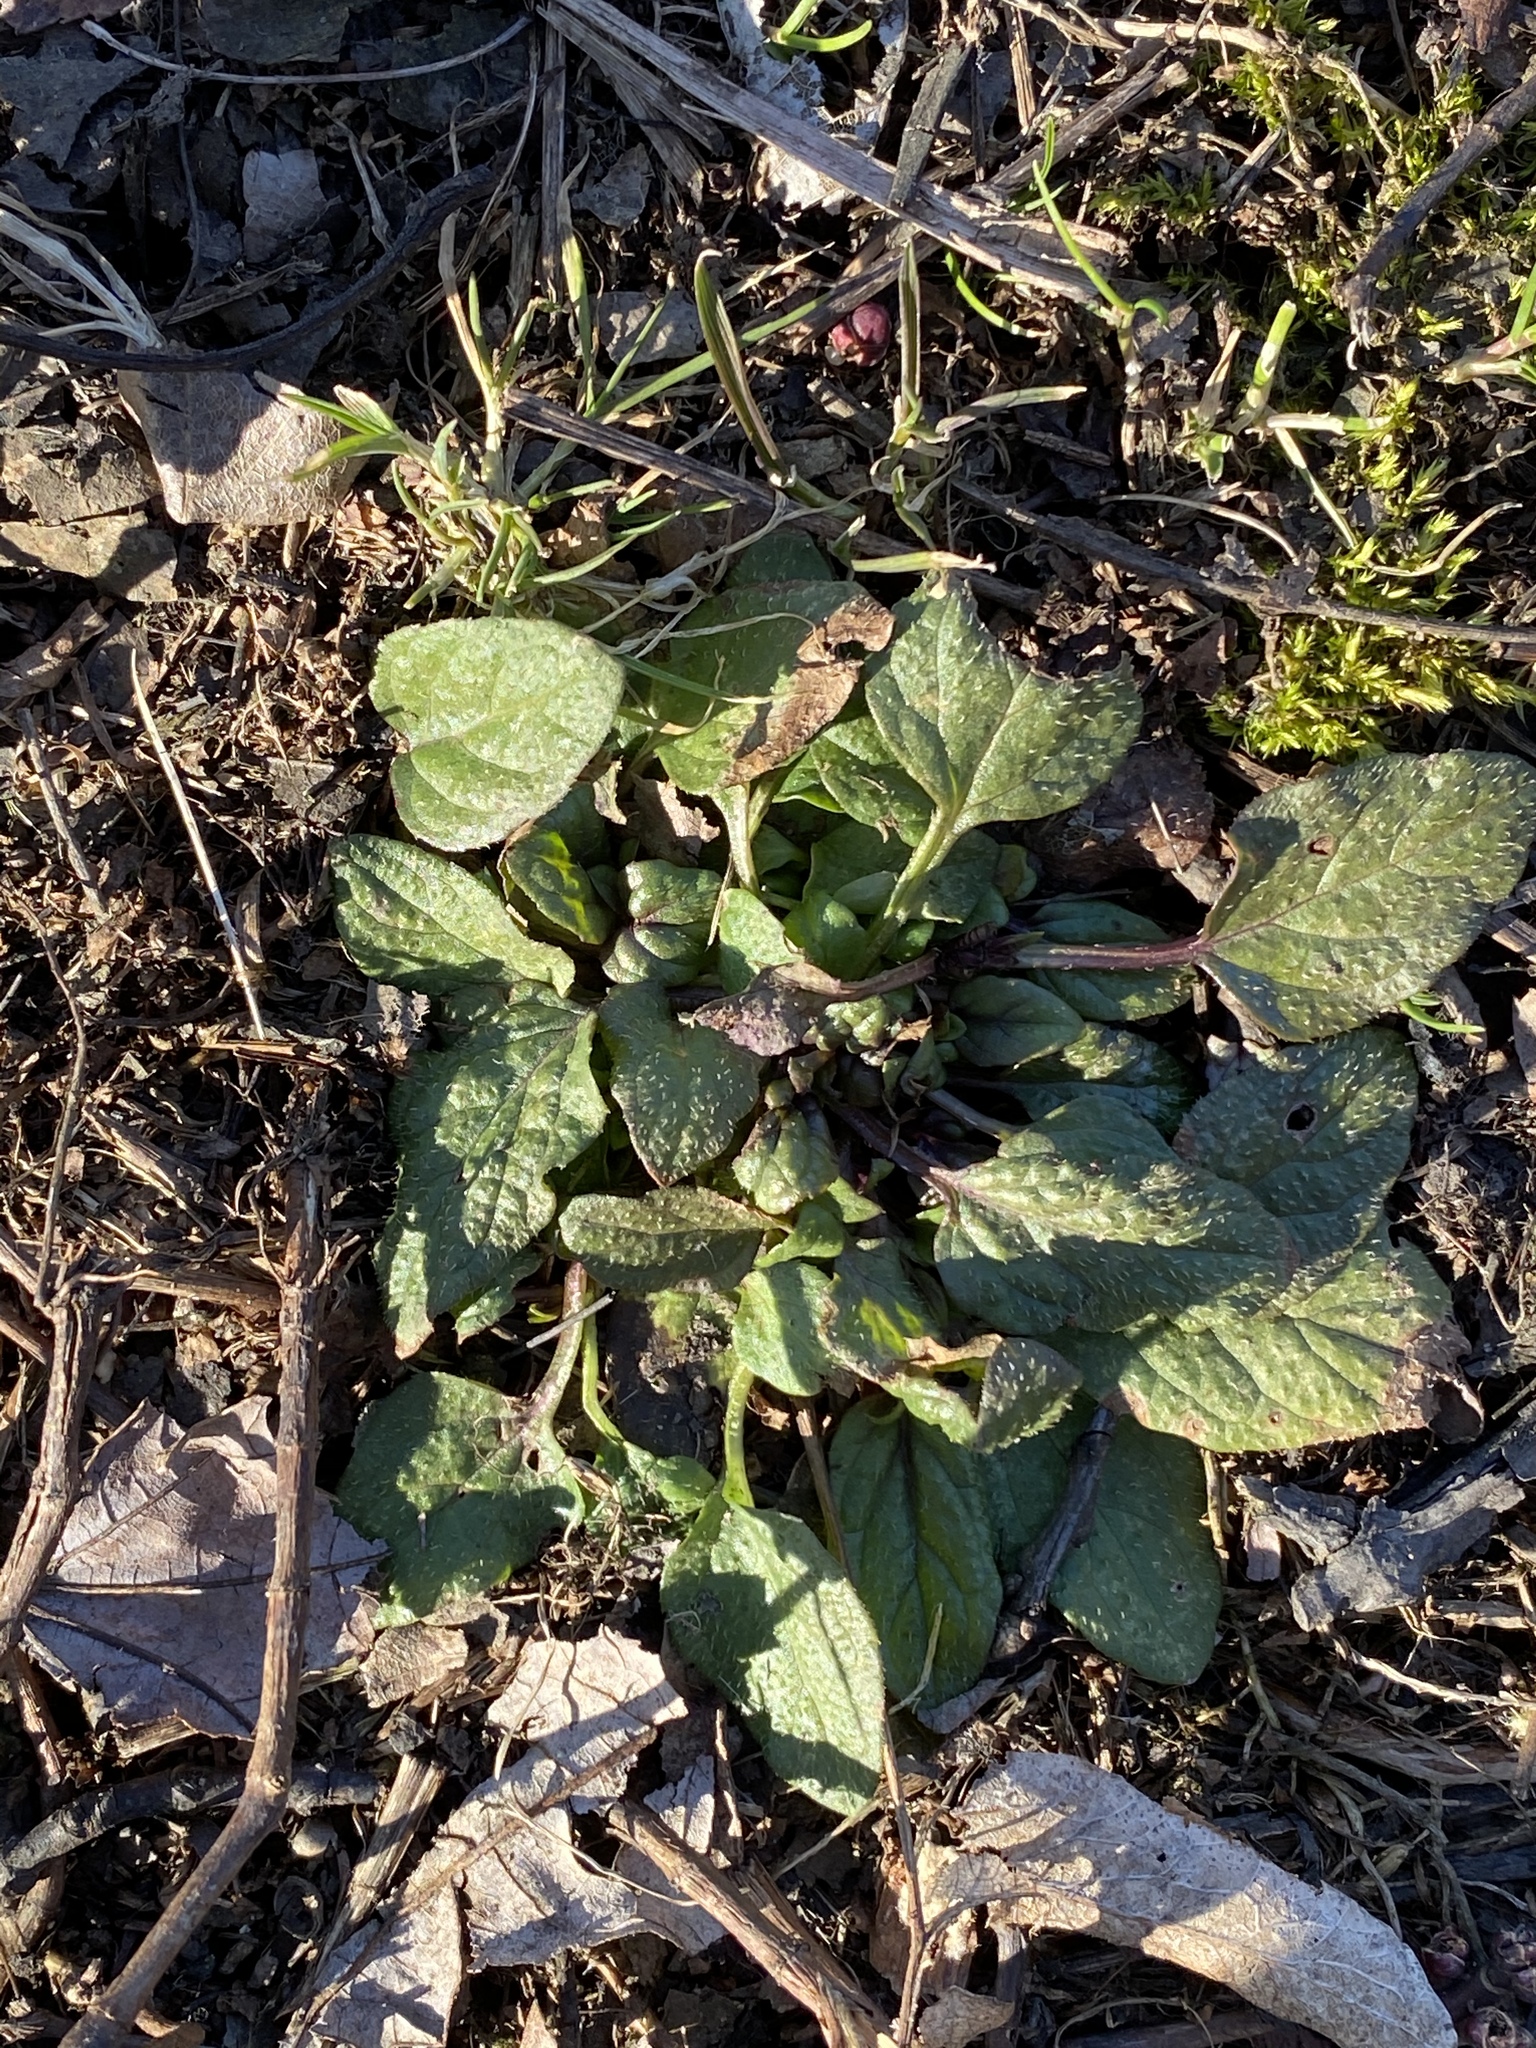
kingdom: Plantae
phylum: Tracheophyta
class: Magnoliopsida
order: Lamiales
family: Lamiaceae
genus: Prunella
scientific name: Prunella vulgaris
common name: Heal-all
